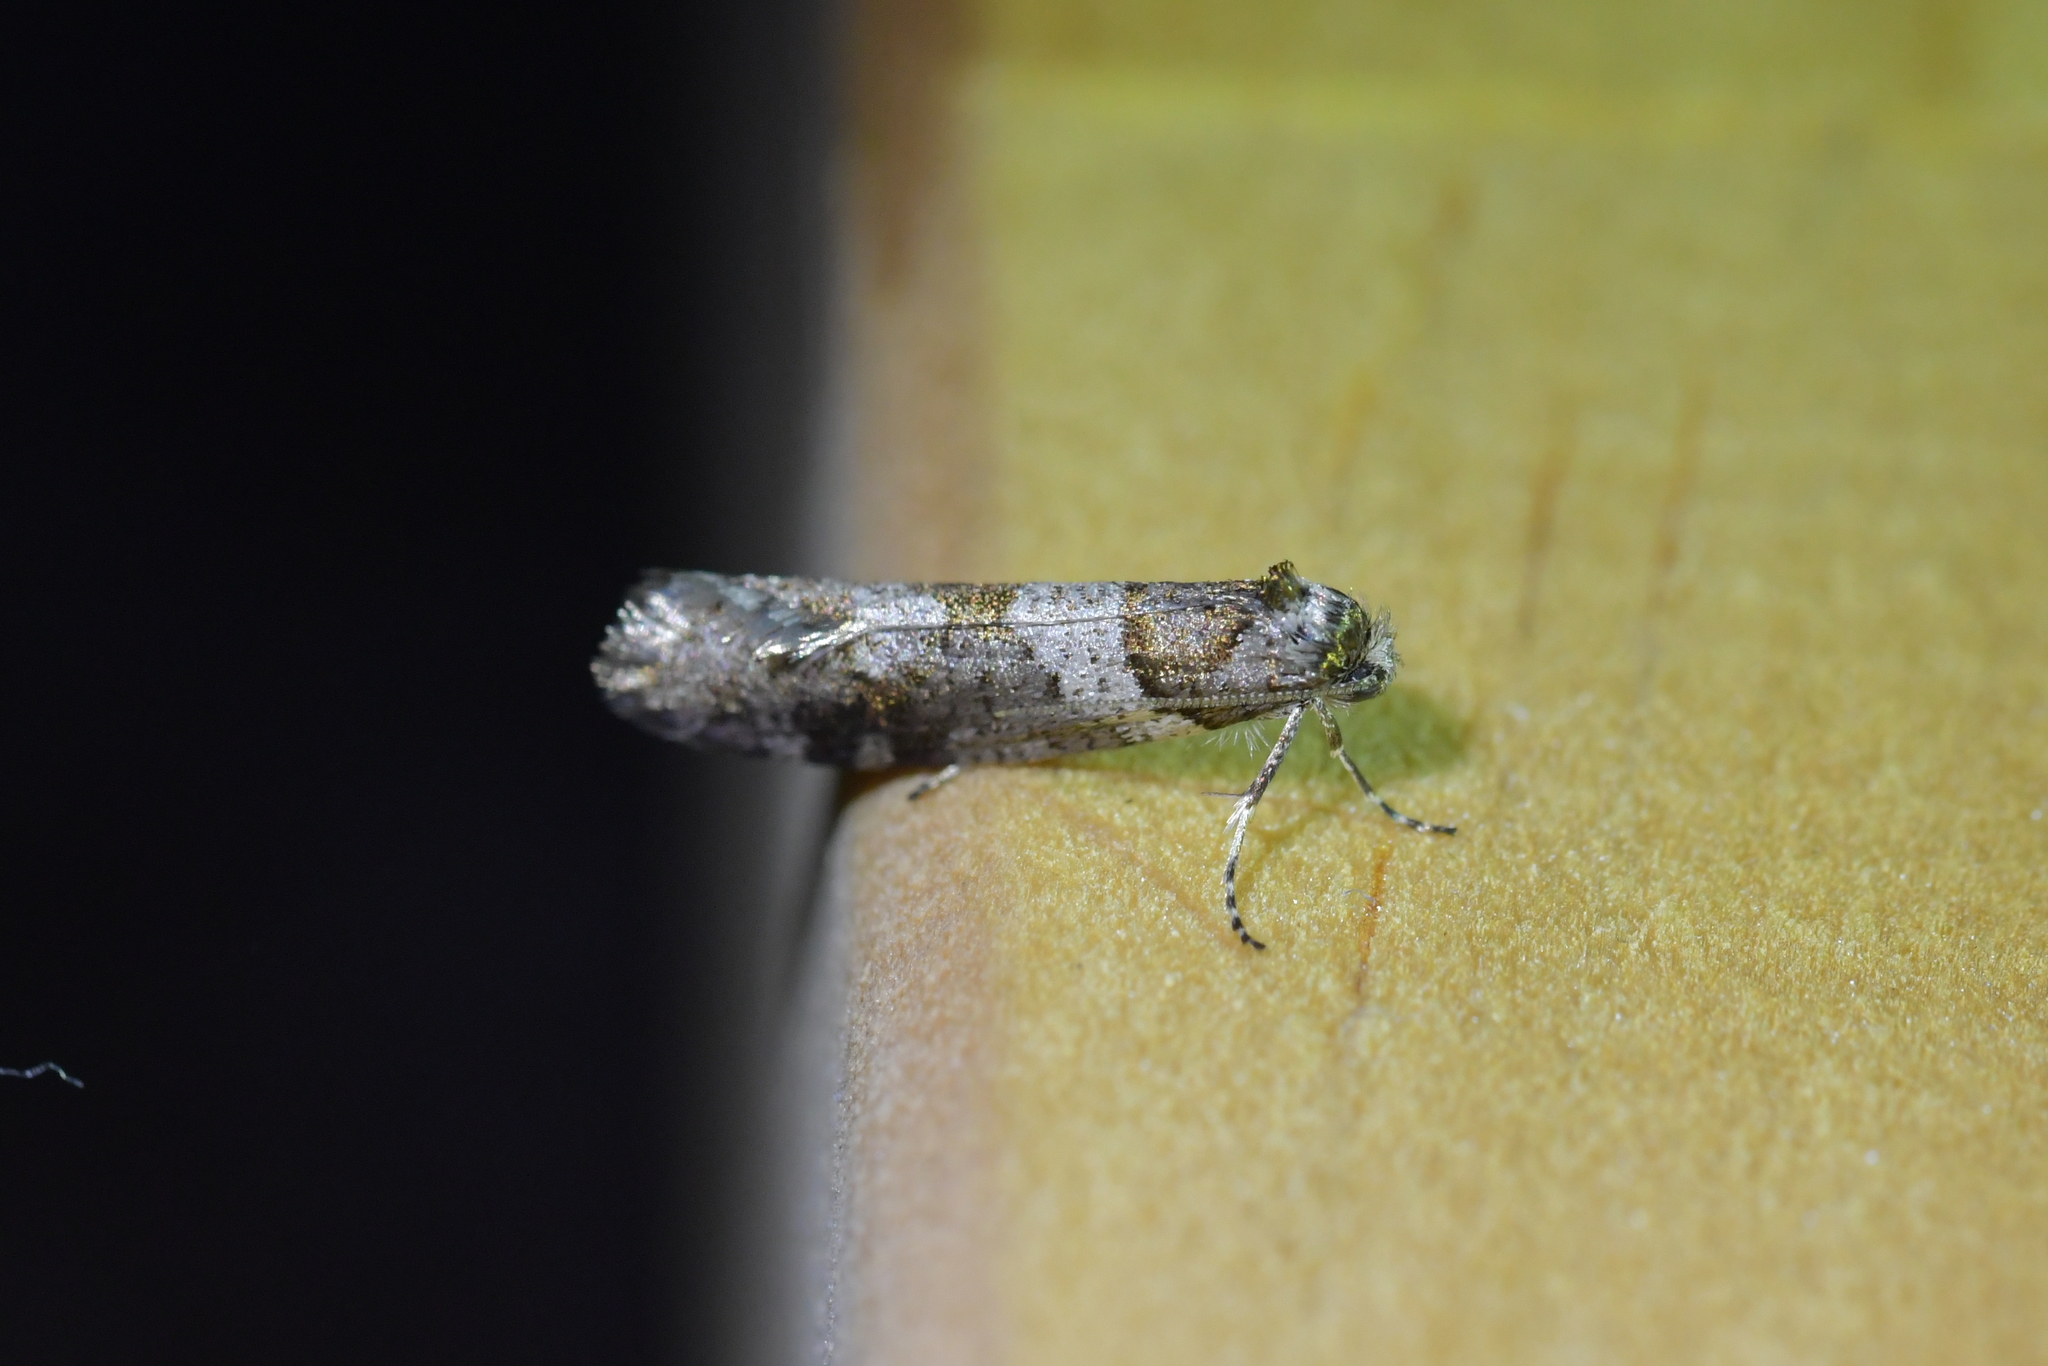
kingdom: Animalia
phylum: Arthropoda
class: Insecta
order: Lepidoptera
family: Psychidae
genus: Lepidoscia
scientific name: Lepidoscia heliochares
